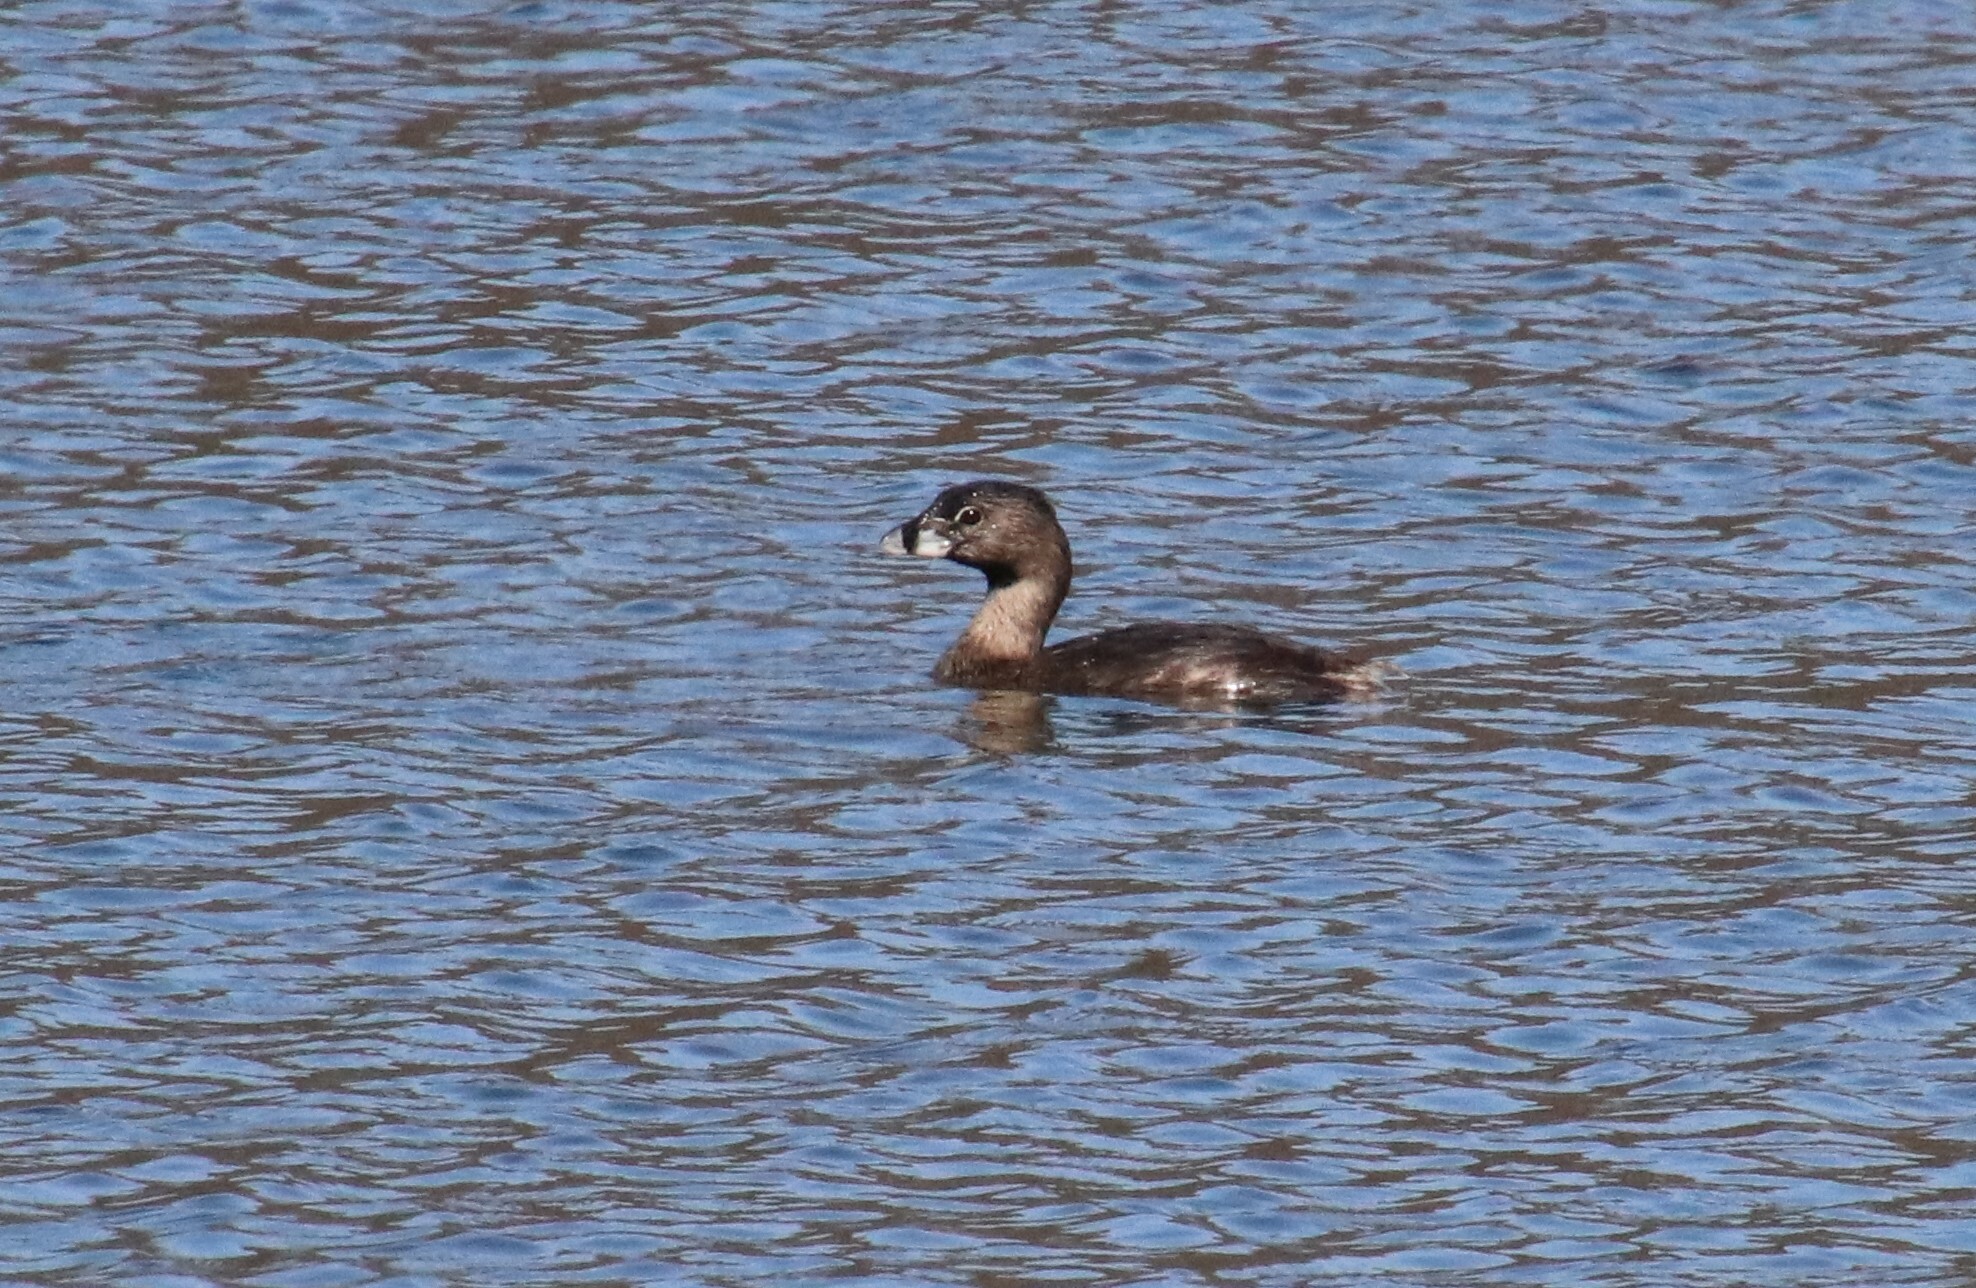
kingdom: Animalia
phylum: Chordata
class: Aves
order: Podicipediformes
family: Podicipedidae
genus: Podilymbus
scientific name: Podilymbus podiceps
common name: Pied-billed grebe
